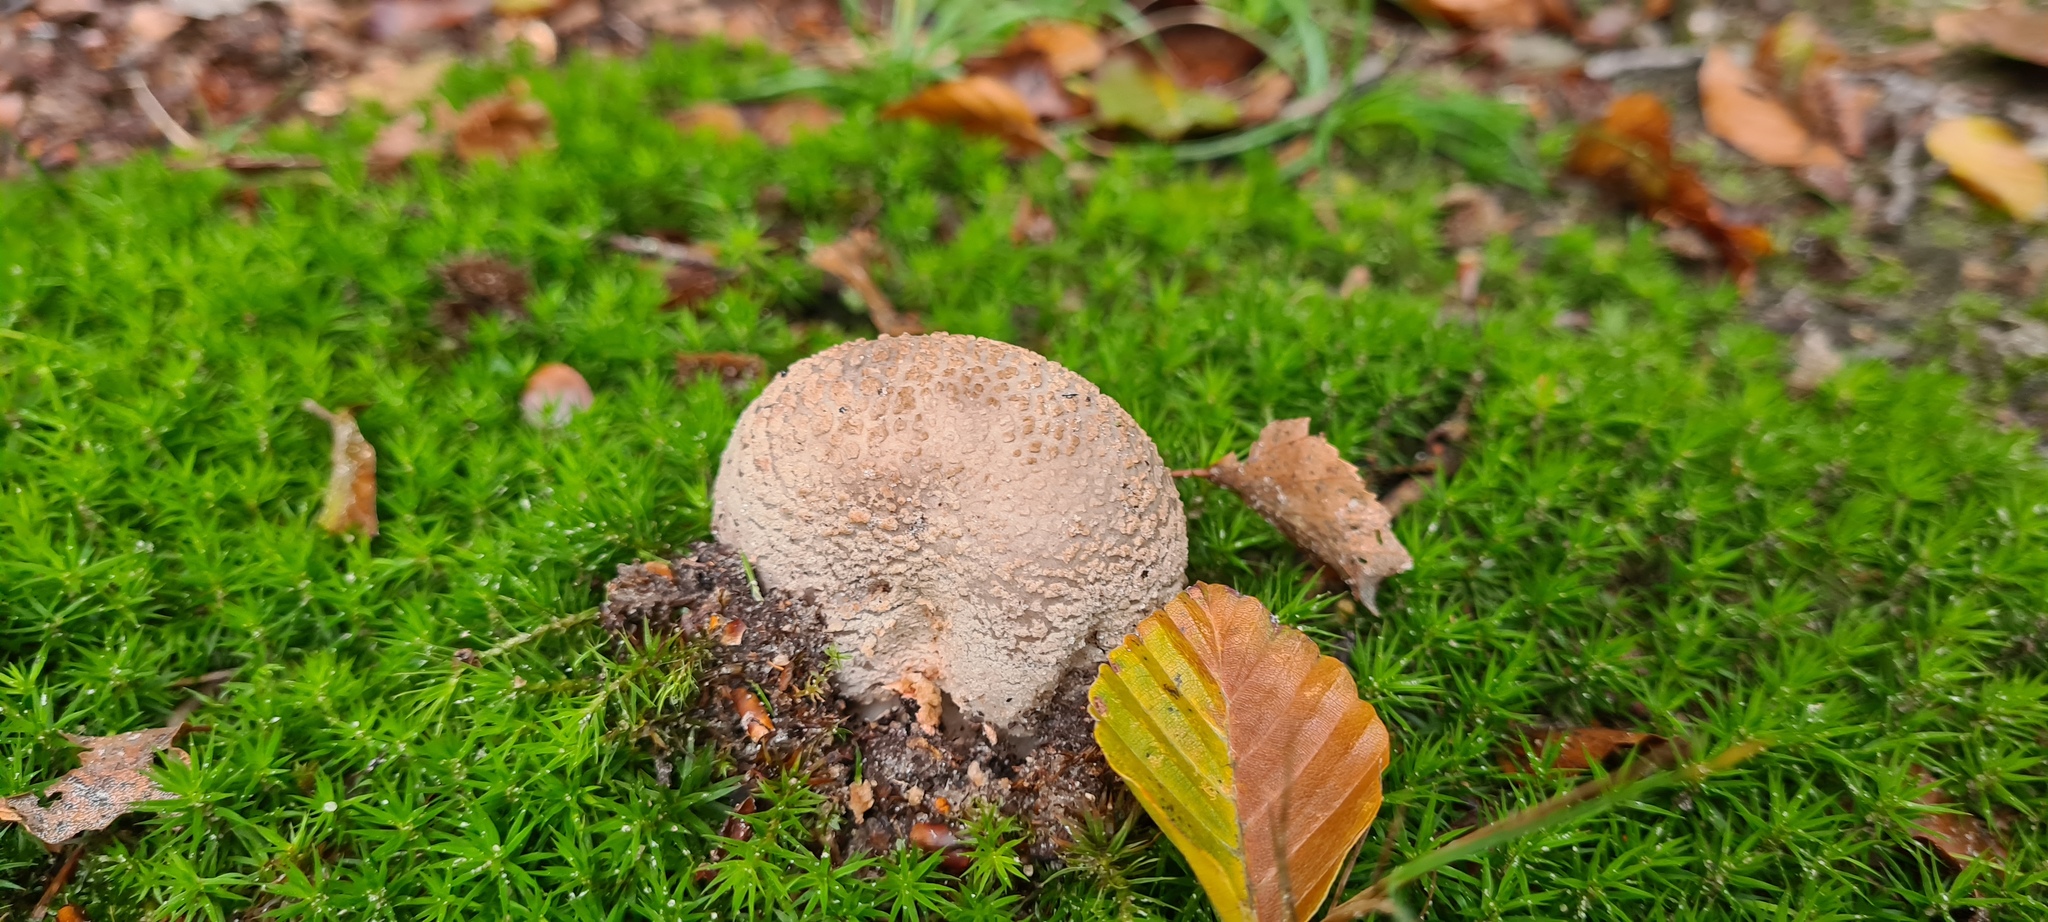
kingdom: Fungi
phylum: Basidiomycota
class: Agaricomycetes
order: Agaricales
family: Amanitaceae
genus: Amanita
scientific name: Amanita rubescens
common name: Blusher
